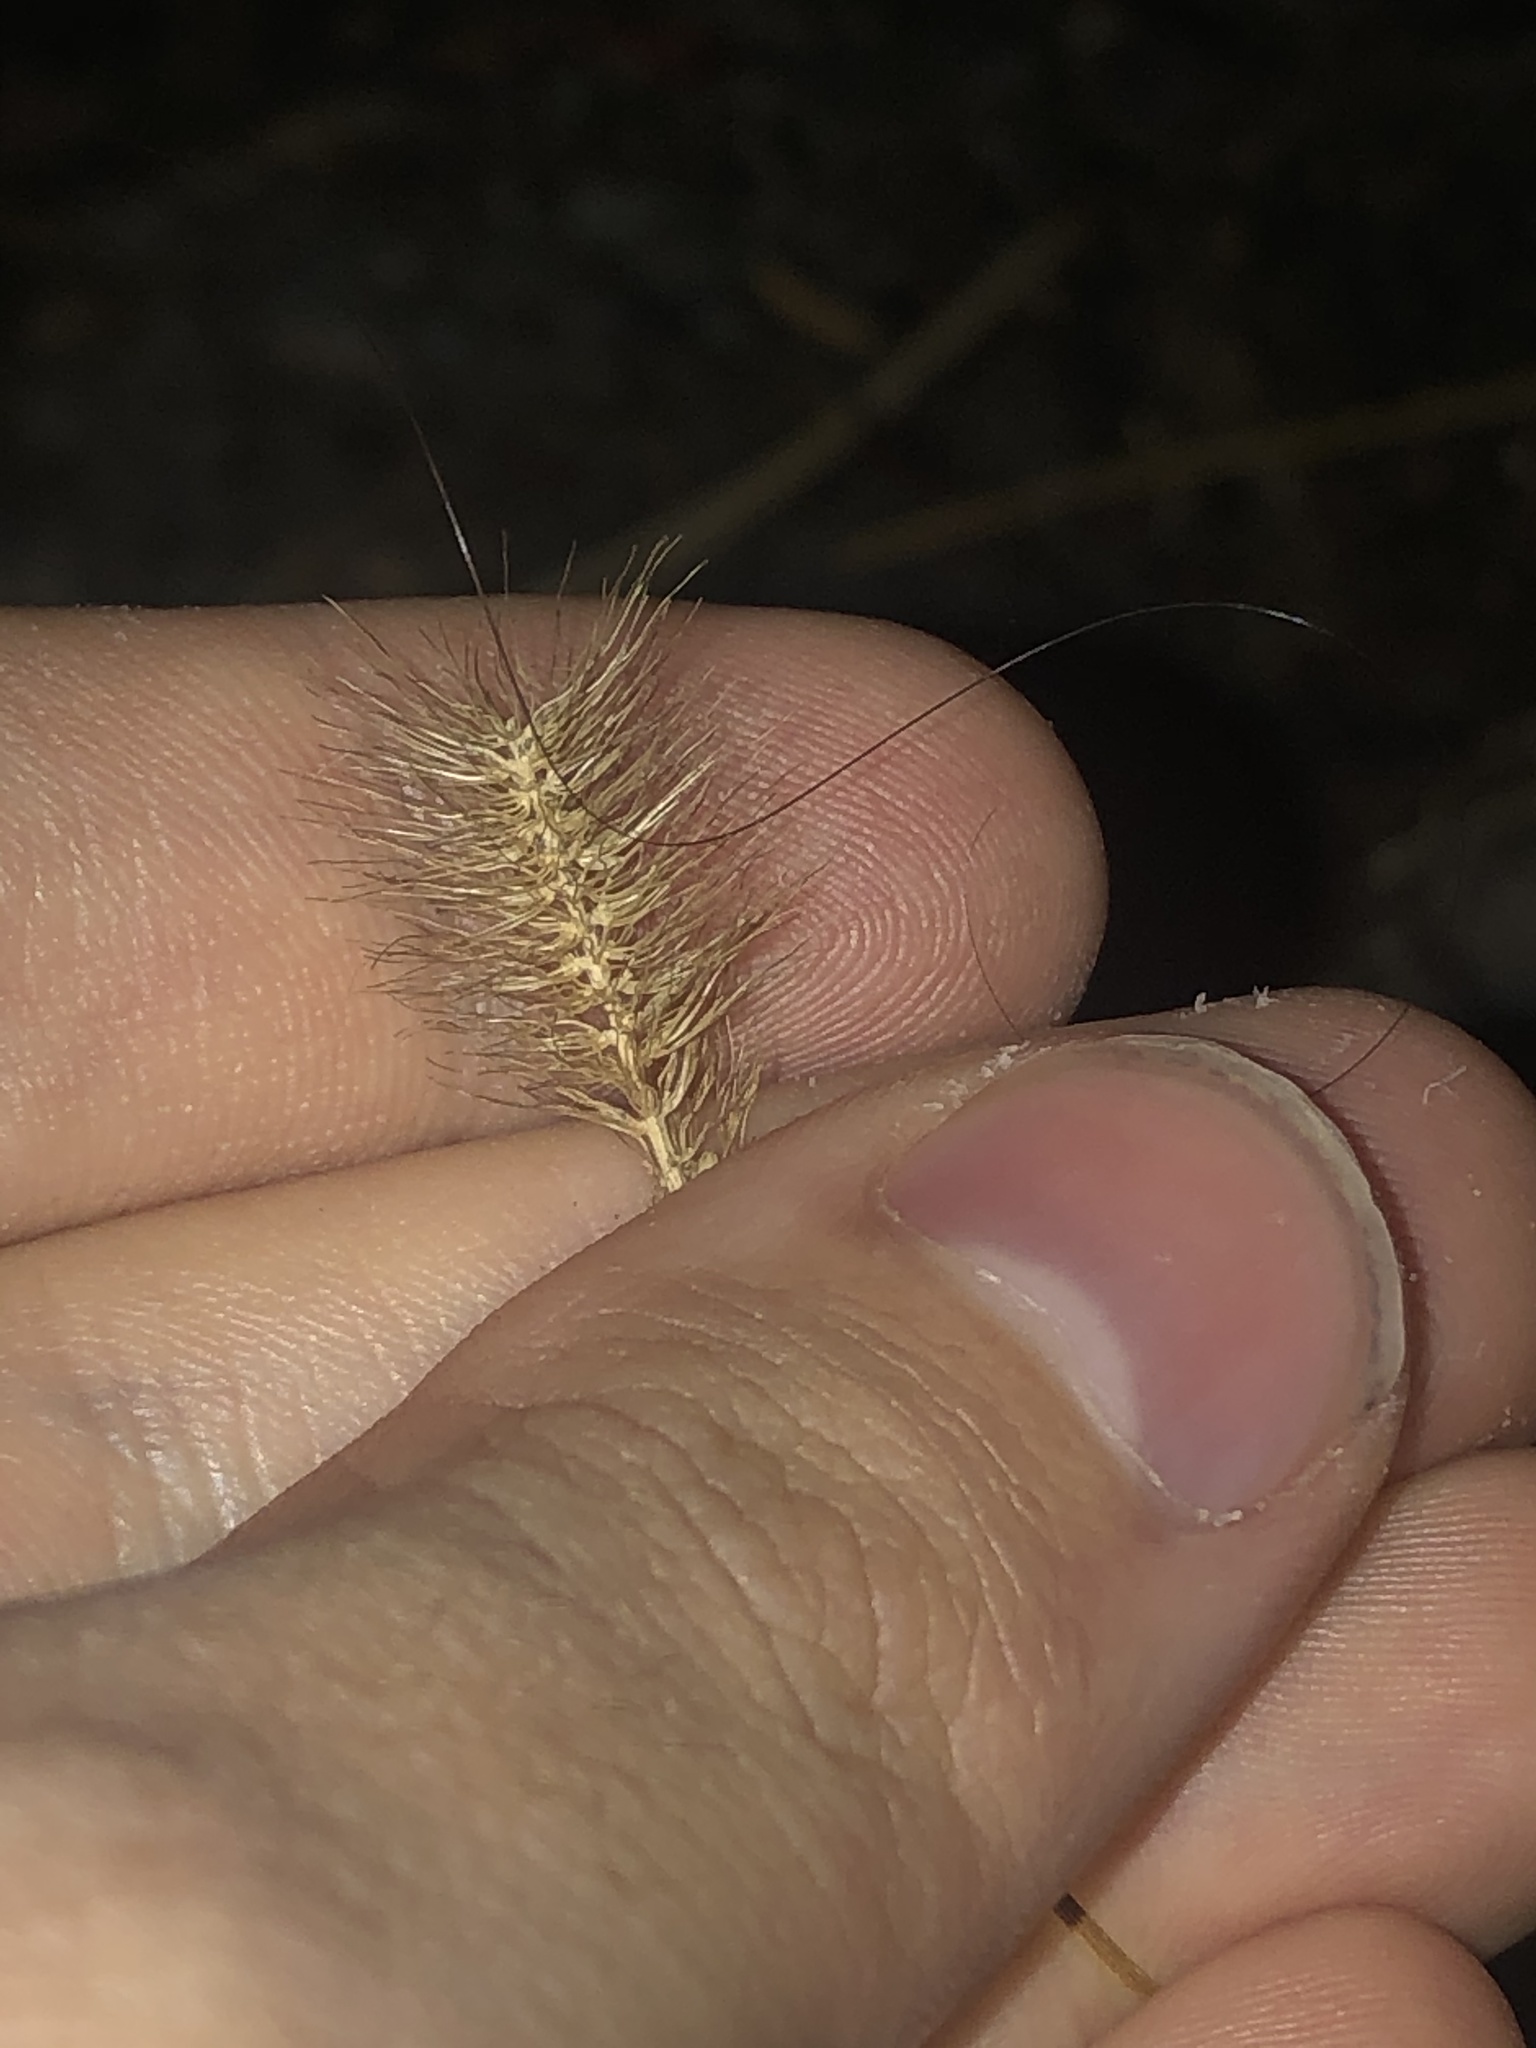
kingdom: Plantae
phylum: Tracheophyta
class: Liliopsida
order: Poales
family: Poaceae
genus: Setaria
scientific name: Setaria viridis
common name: Green bristlegrass
